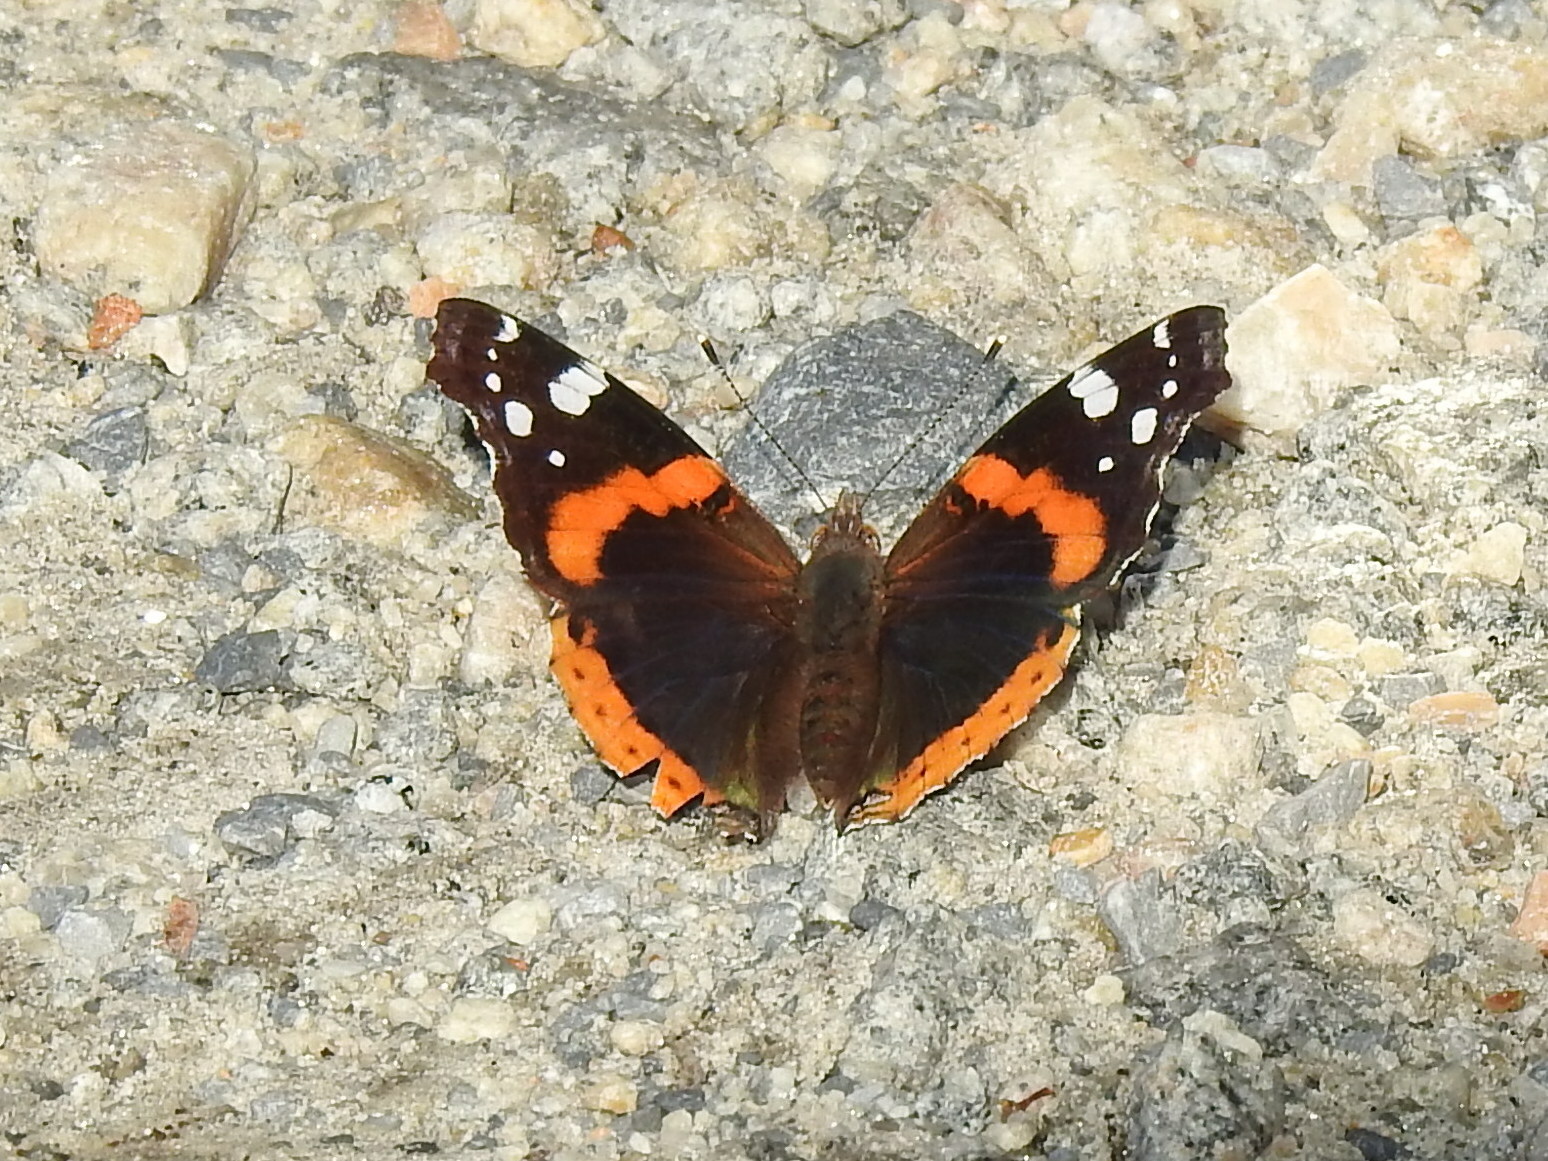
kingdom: Animalia
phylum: Arthropoda
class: Insecta
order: Lepidoptera
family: Nymphalidae
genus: Vanessa
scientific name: Vanessa atalanta
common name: Red admiral
